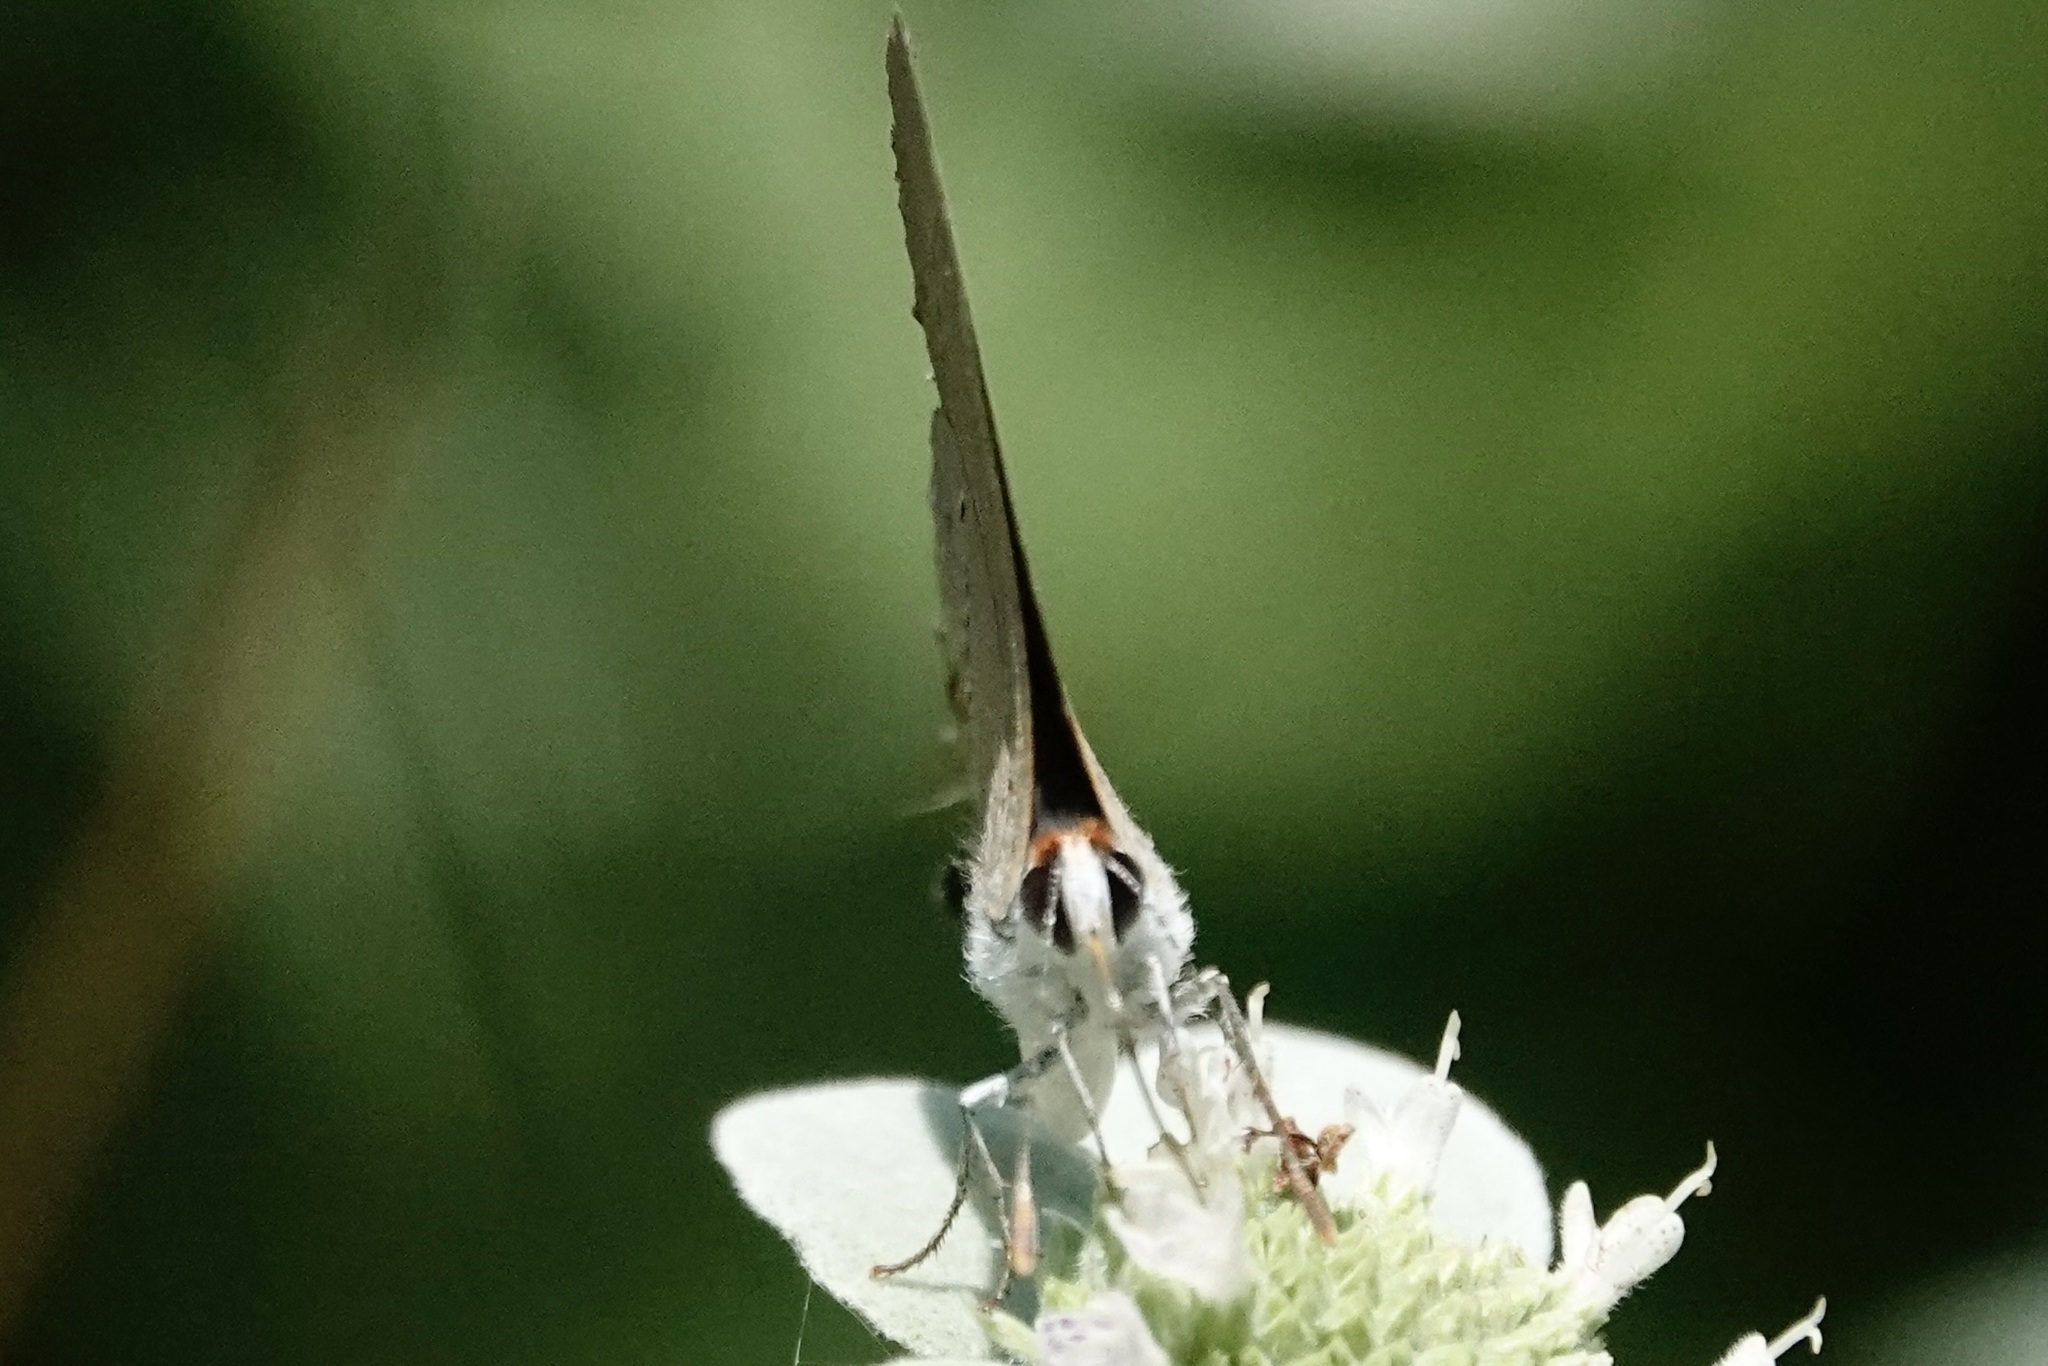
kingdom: Animalia
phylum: Arthropoda
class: Insecta
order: Lepidoptera
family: Lycaenidae
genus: Strymon
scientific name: Strymon melinus
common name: Gray hairstreak
